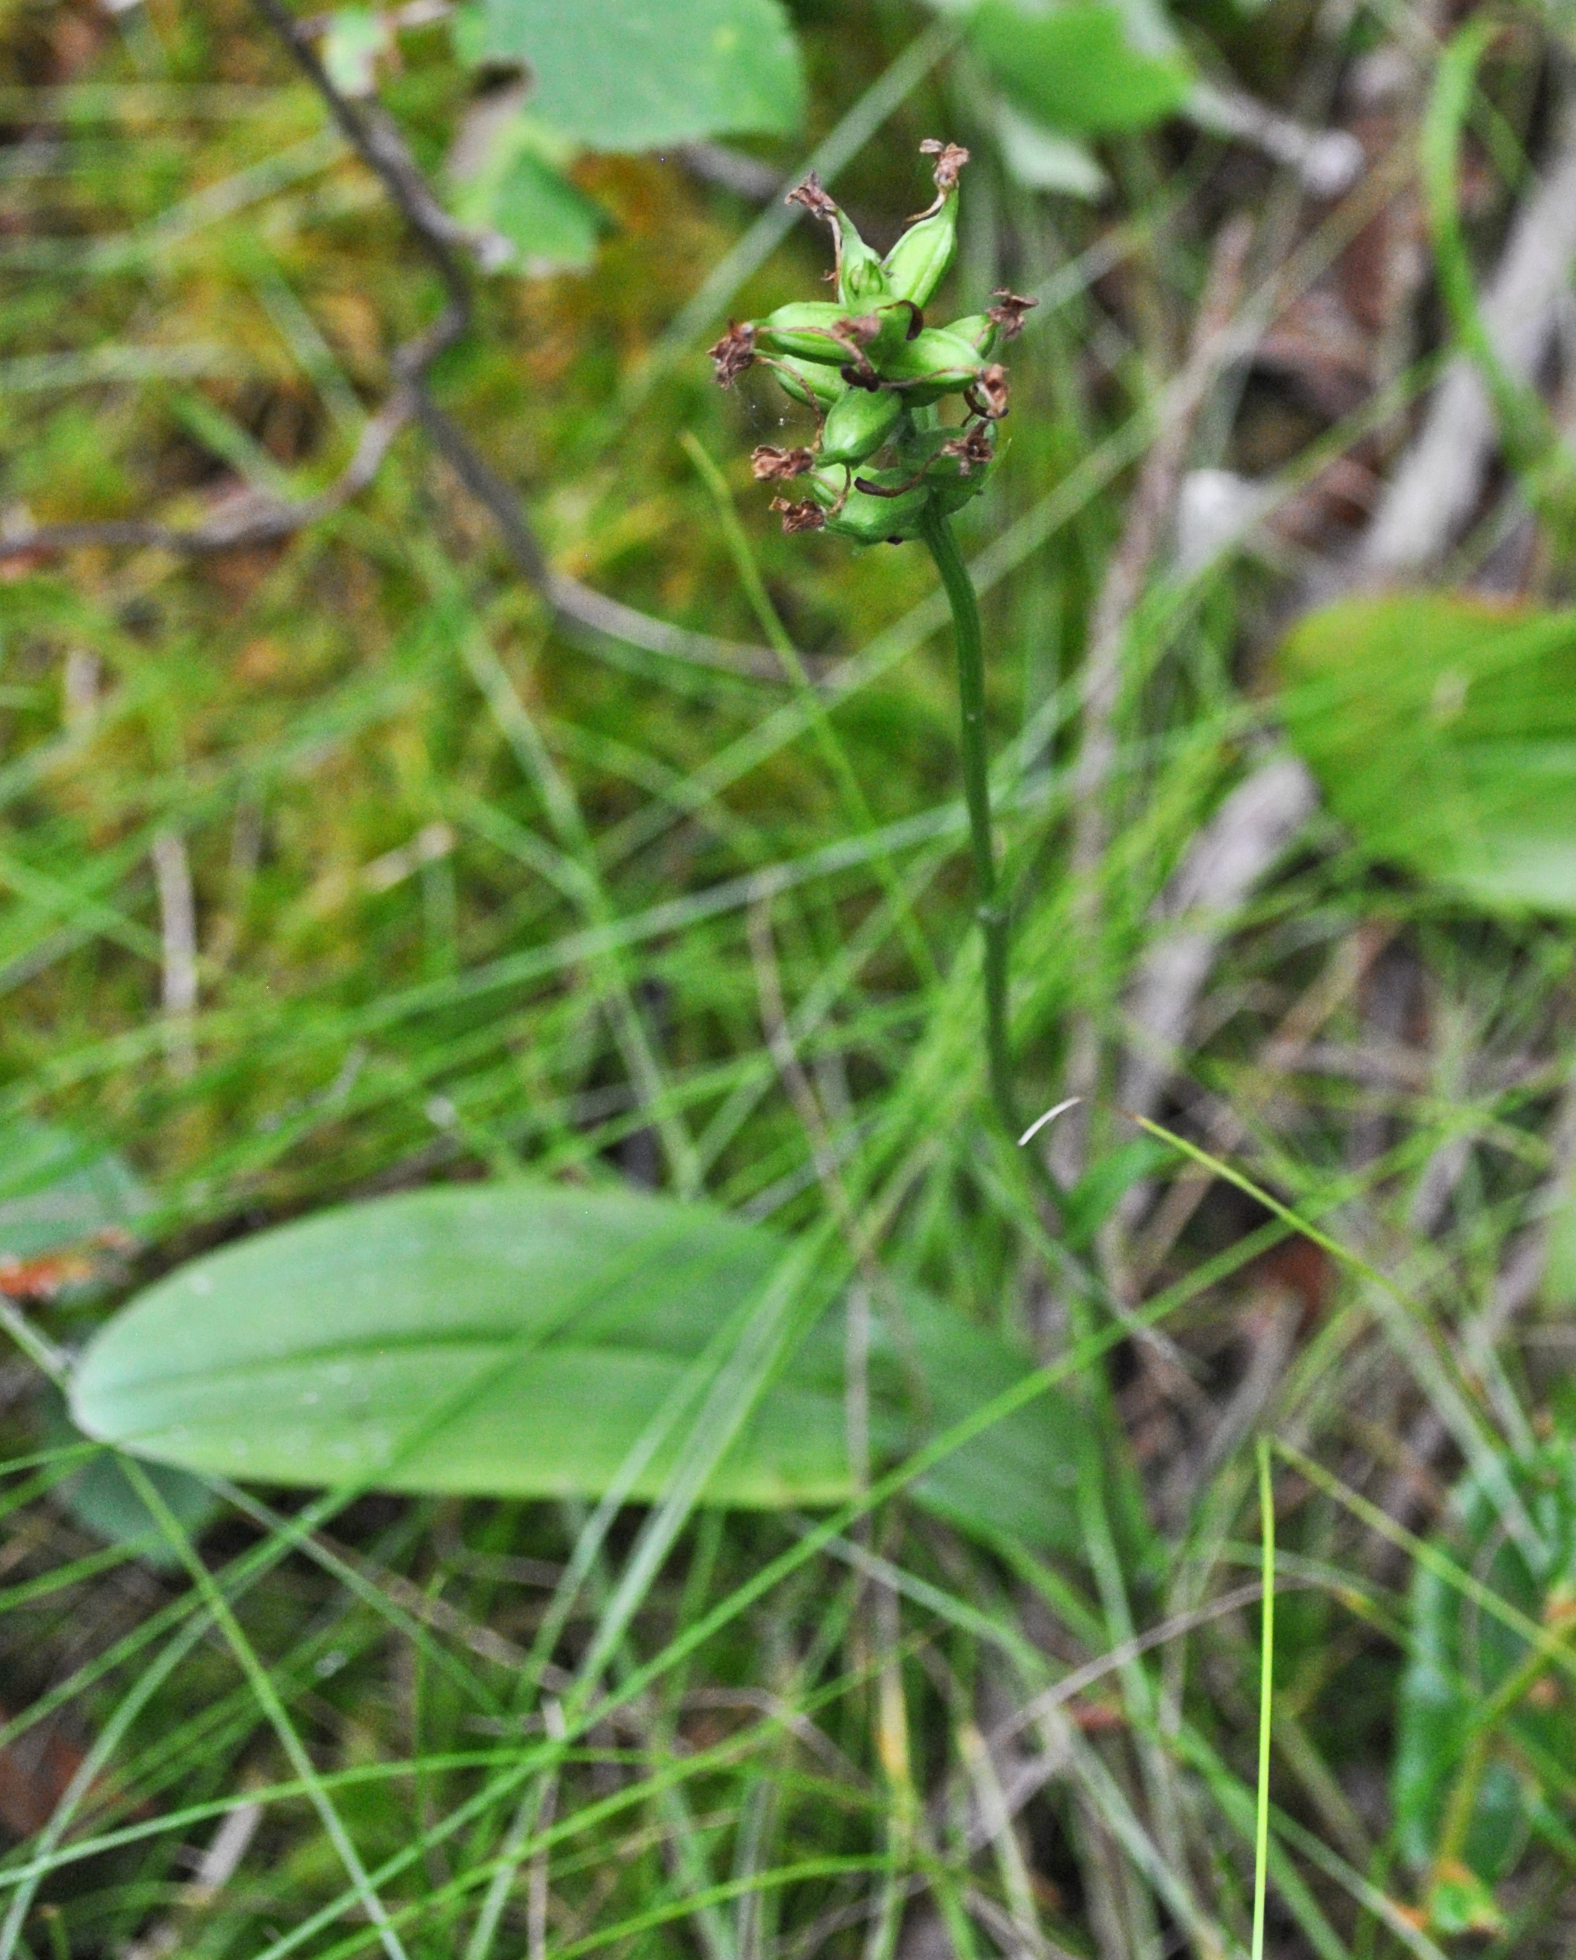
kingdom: Plantae
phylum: Tracheophyta
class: Liliopsida
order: Asparagales
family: Orchidaceae
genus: Platanthera
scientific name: Platanthera clavellata
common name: Club-spur orchid
